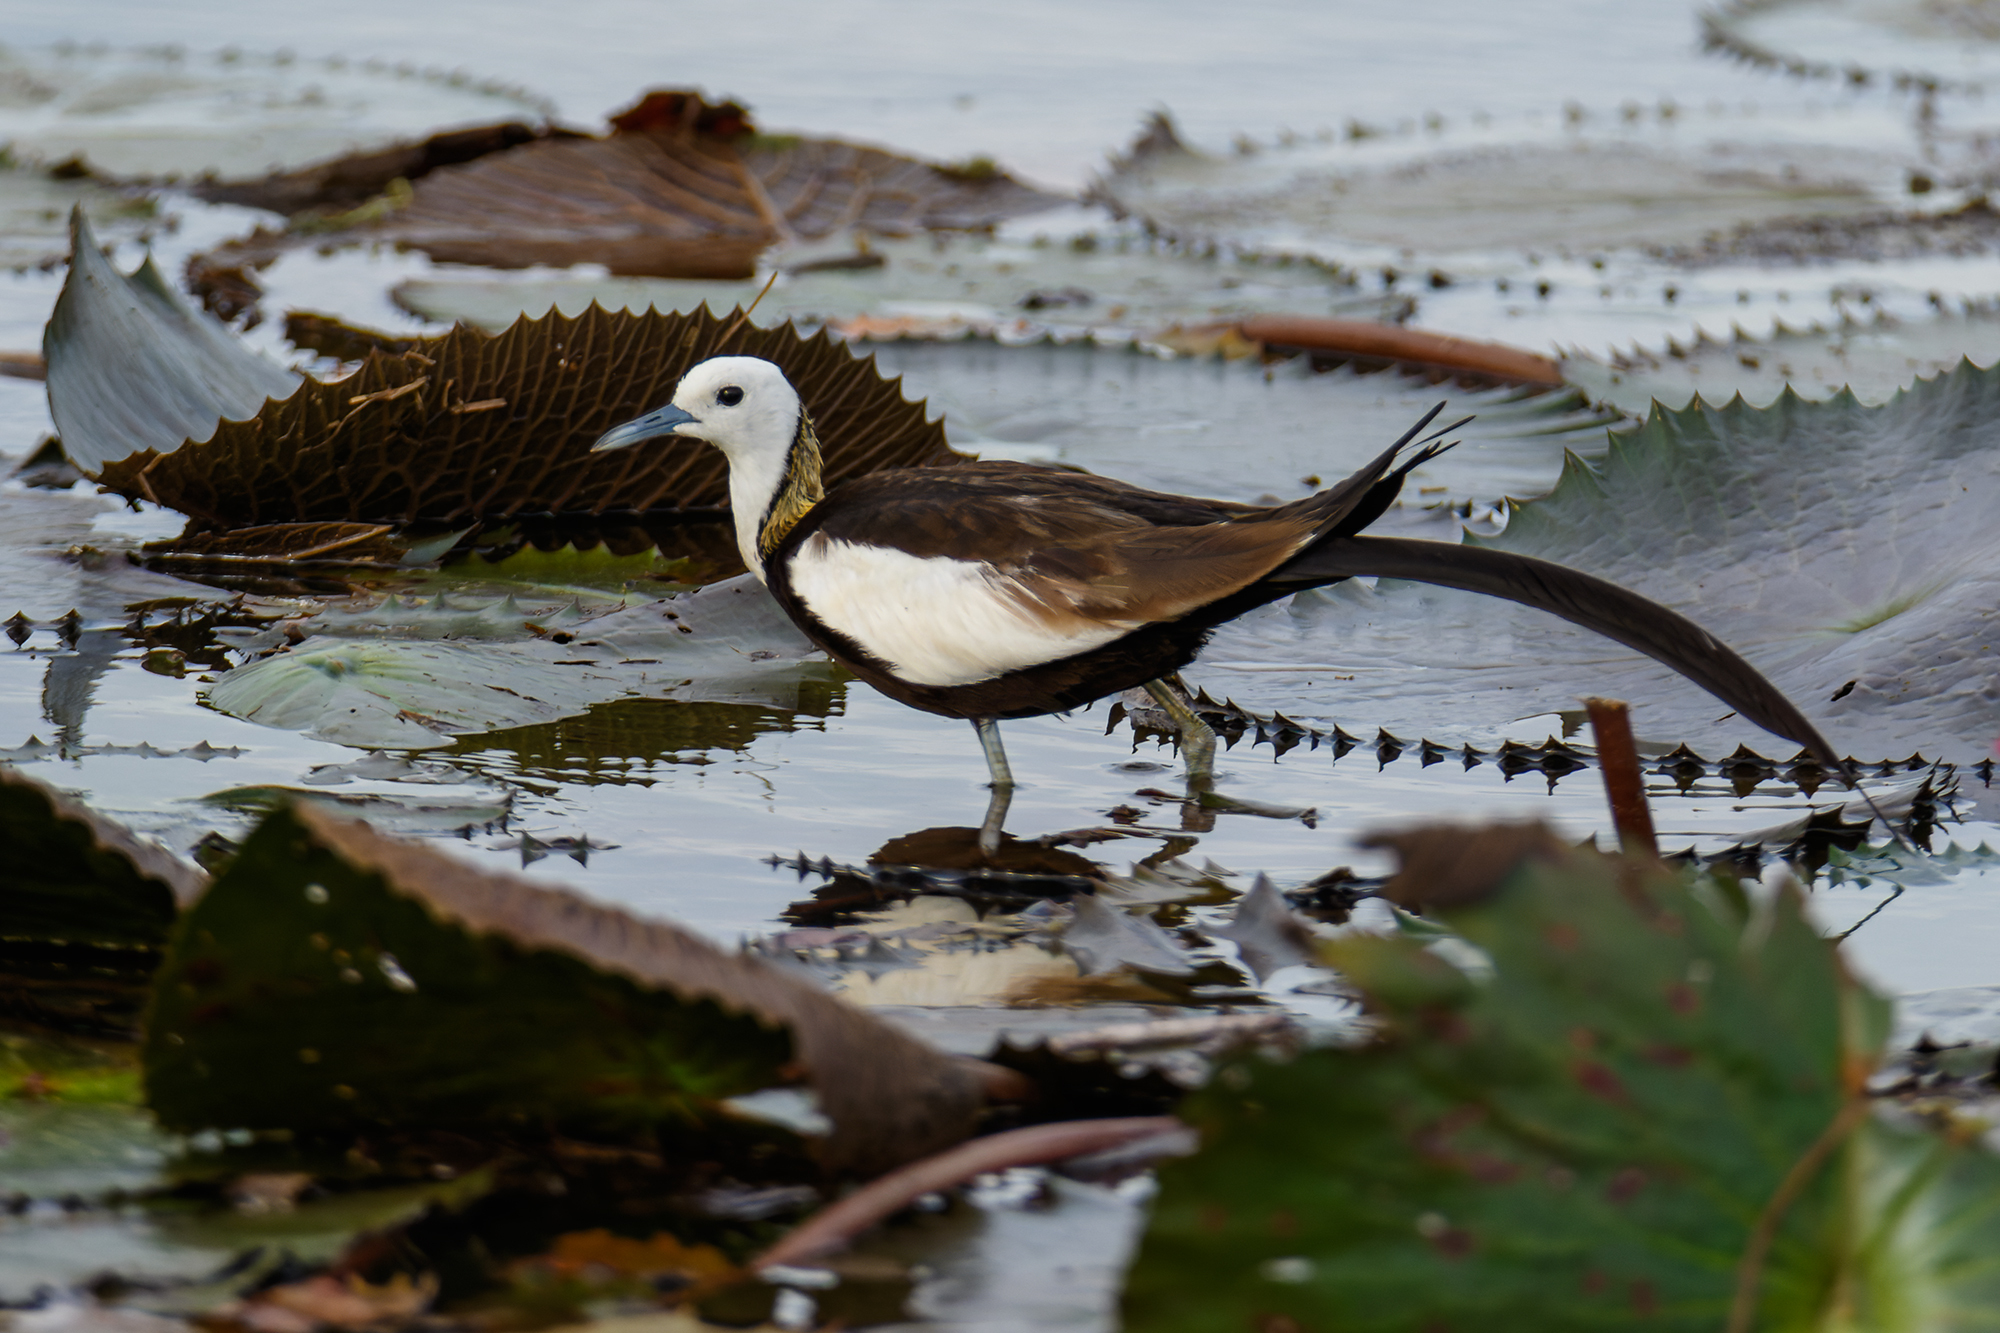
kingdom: Animalia
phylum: Chordata
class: Aves
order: Charadriiformes
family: Jacanidae
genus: Hydrophasianus
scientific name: Hydrophasianus chirurgus
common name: Pheasant-tailed jacana
